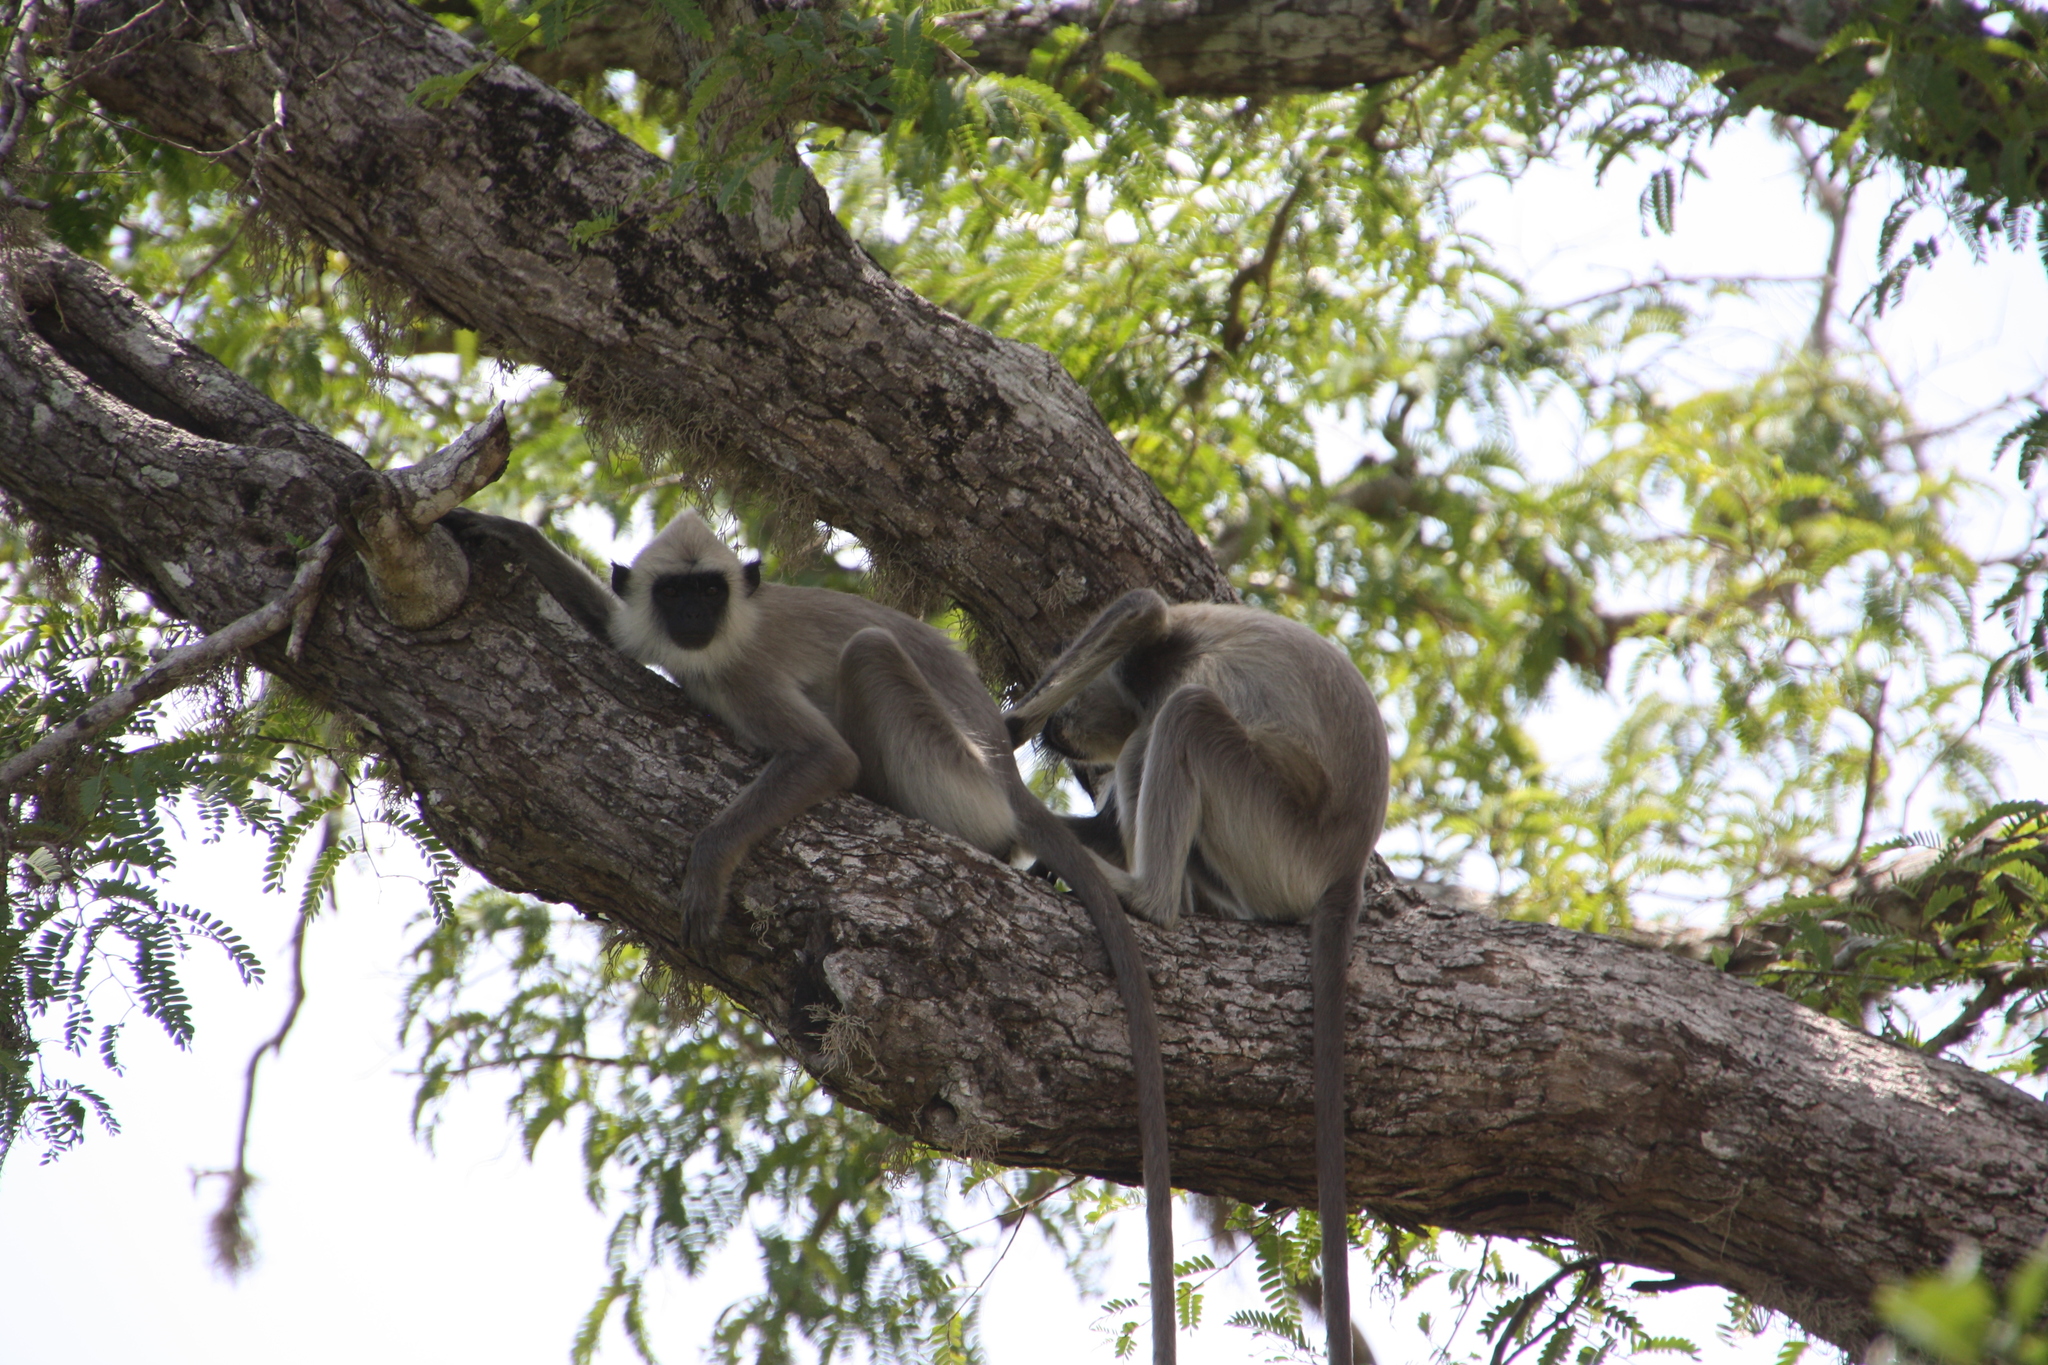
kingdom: Animalia
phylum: Chordata
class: Mammalia
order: Primates
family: Cercopithecidae
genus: Semnopithecus
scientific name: Semnopithecus priam
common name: Tufted gray langur
